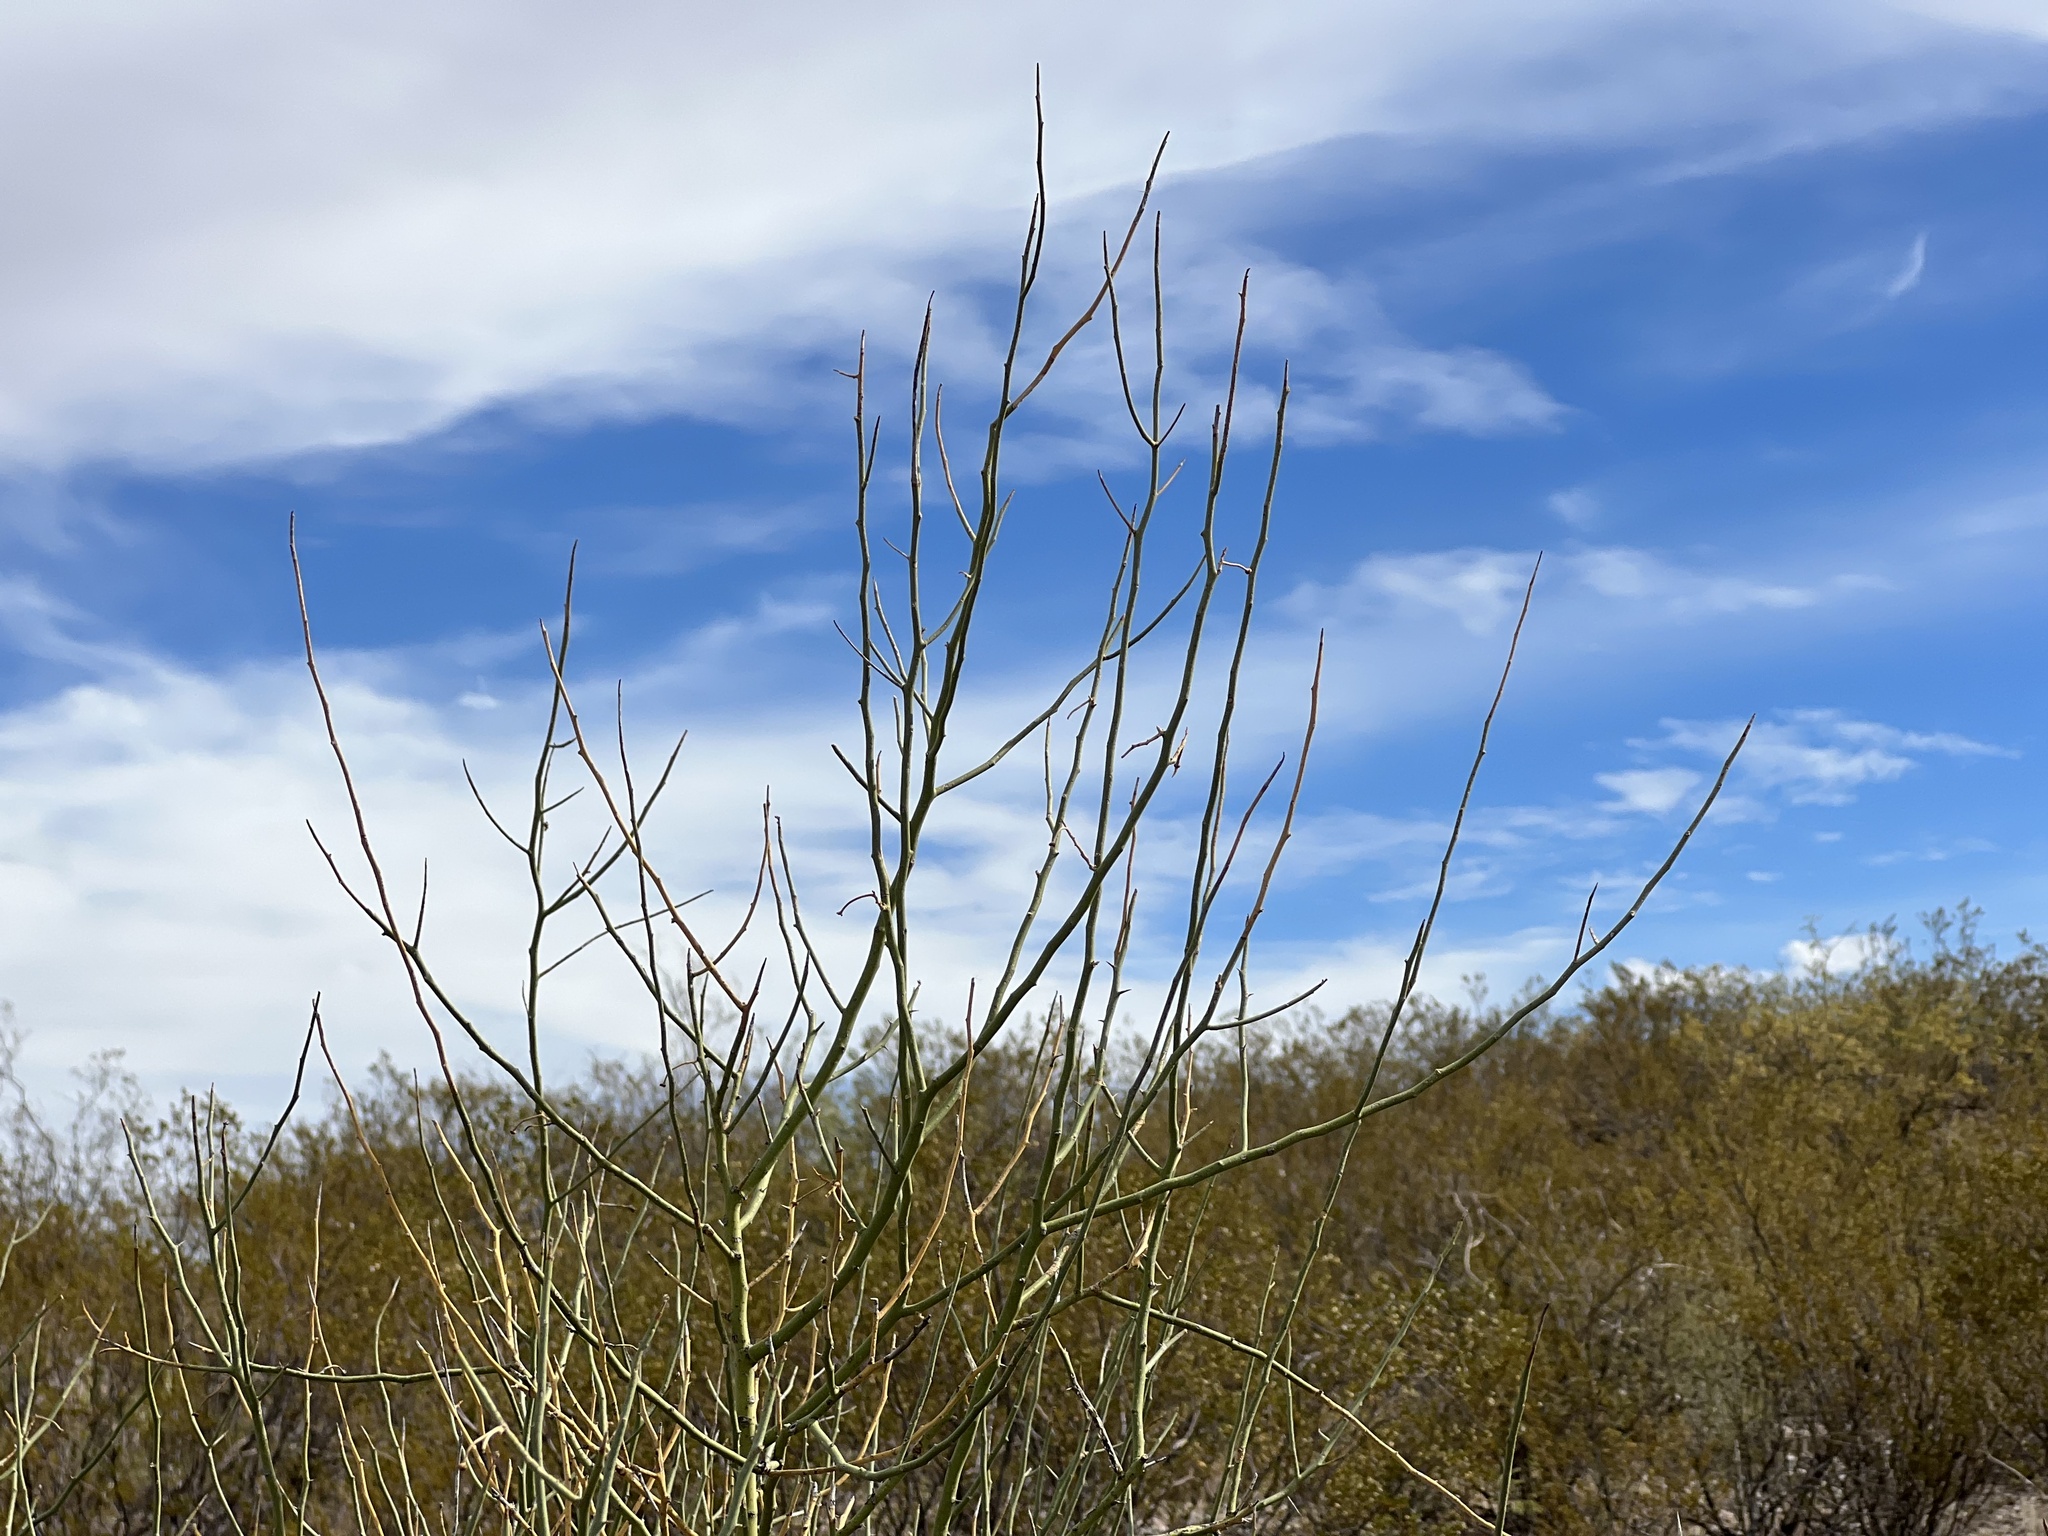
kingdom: Plantae
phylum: Tracheophyta
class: Magnoliopsida
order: Fabales
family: Fabaceae
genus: Parkinsonia
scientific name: Parkinsonia florida
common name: Blue paloverde
